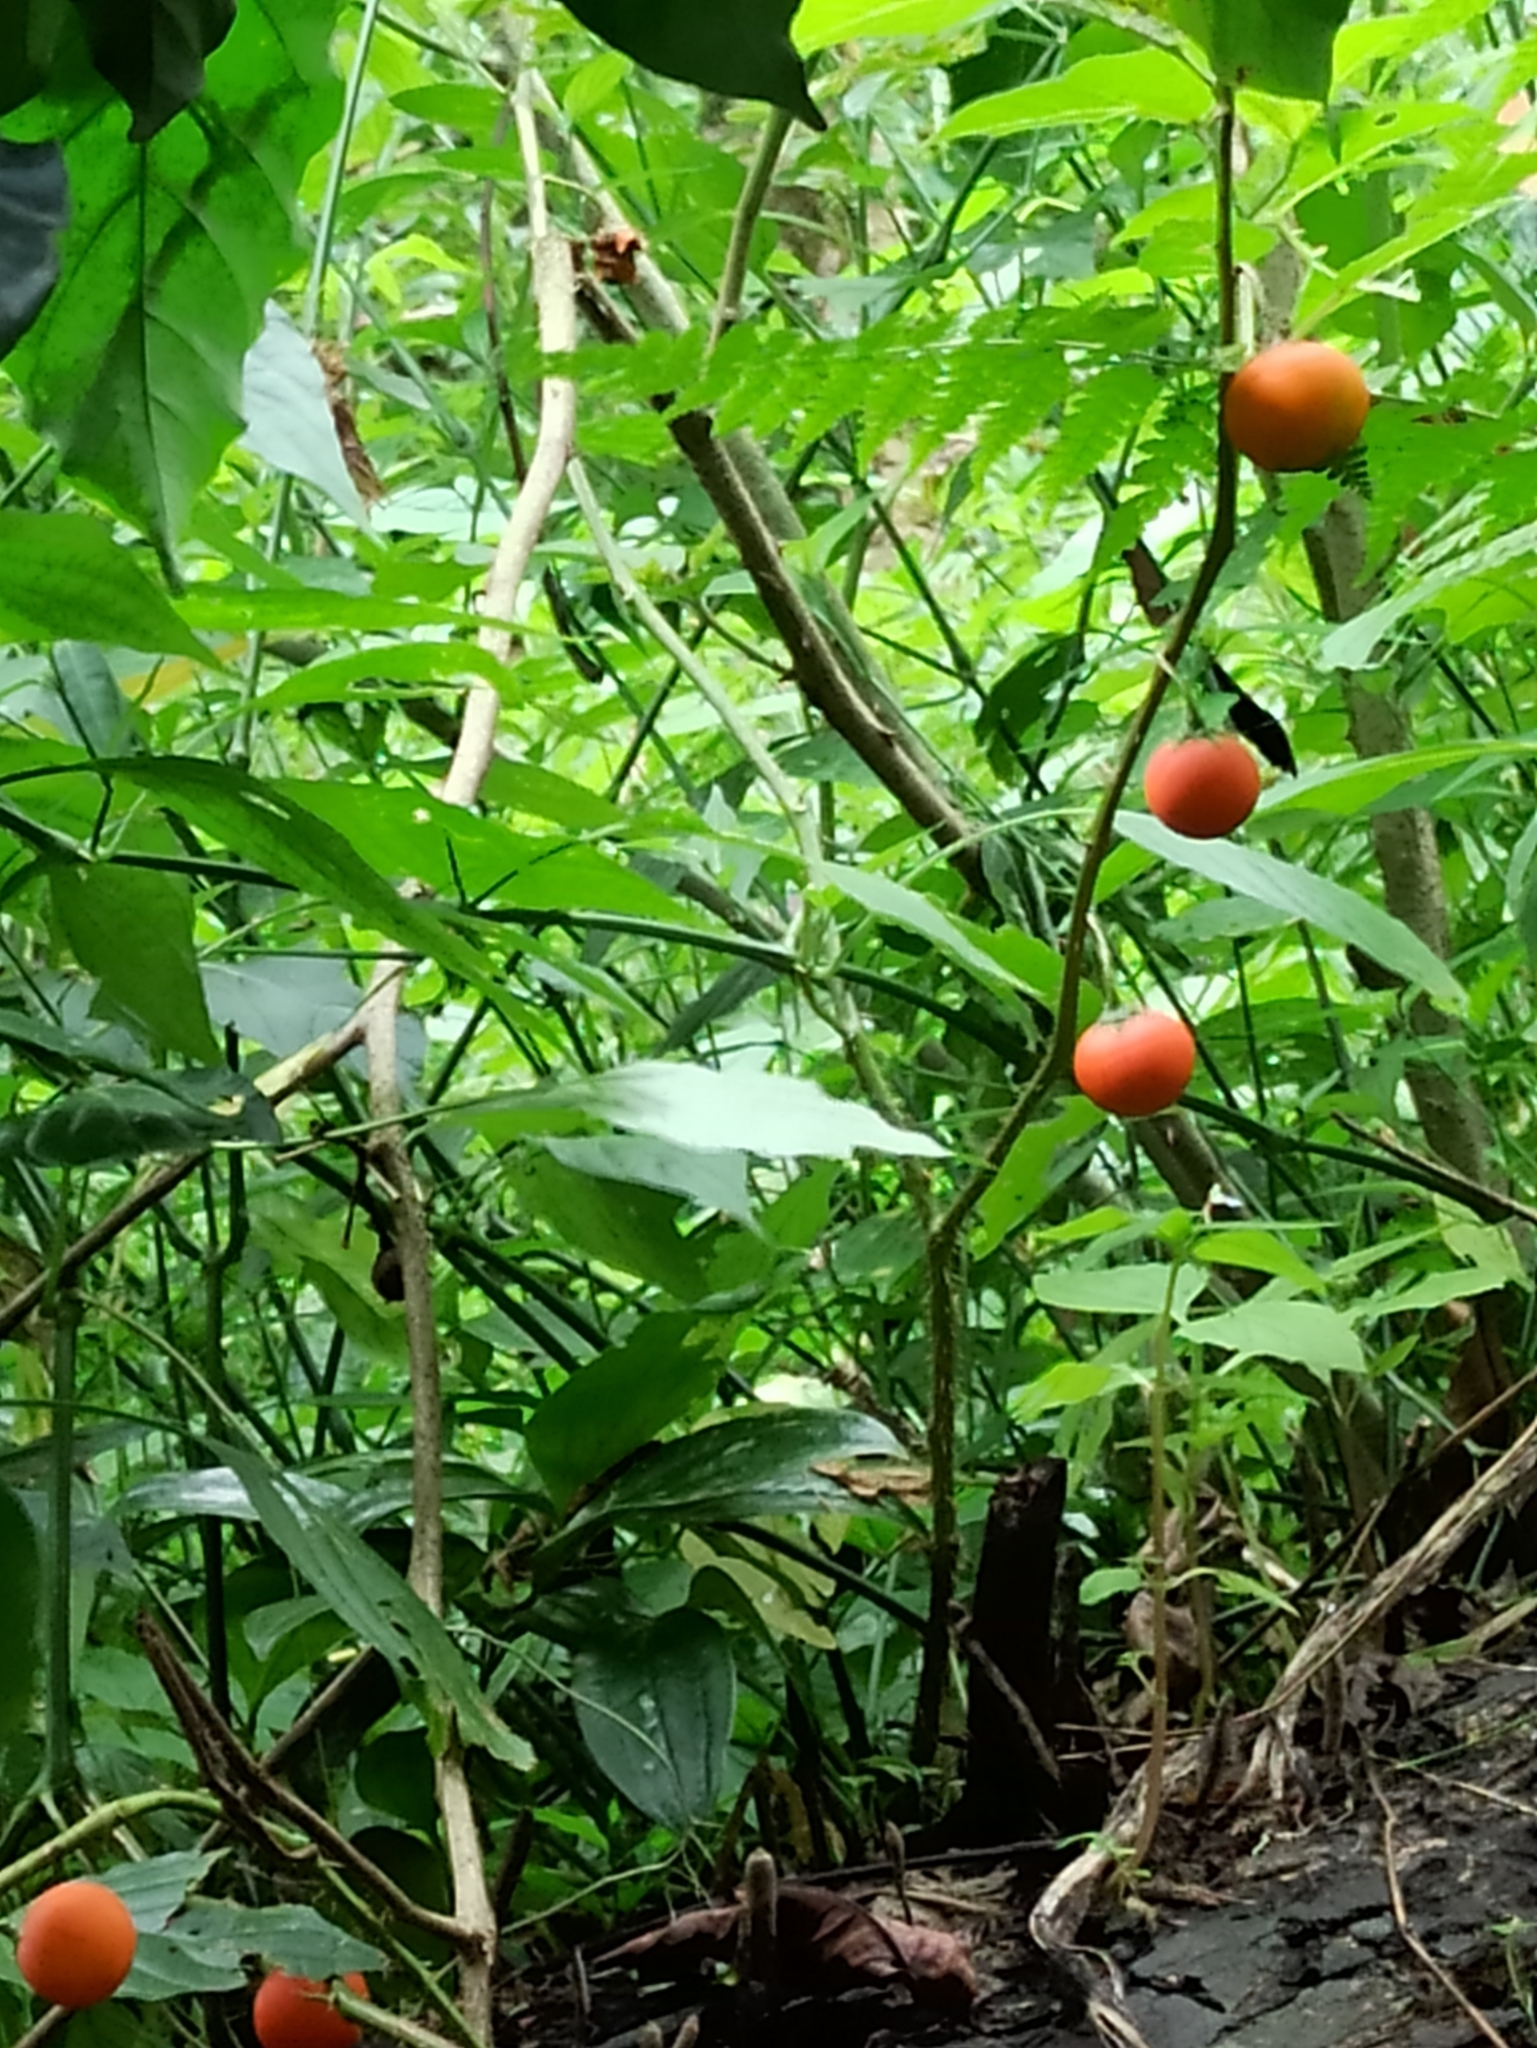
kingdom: Plantae
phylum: Tracheophyta
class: Magnoliopsida
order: Solanales
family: Solanaceae
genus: Solanum
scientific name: Solanum capsicoides
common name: Cockroach berry
